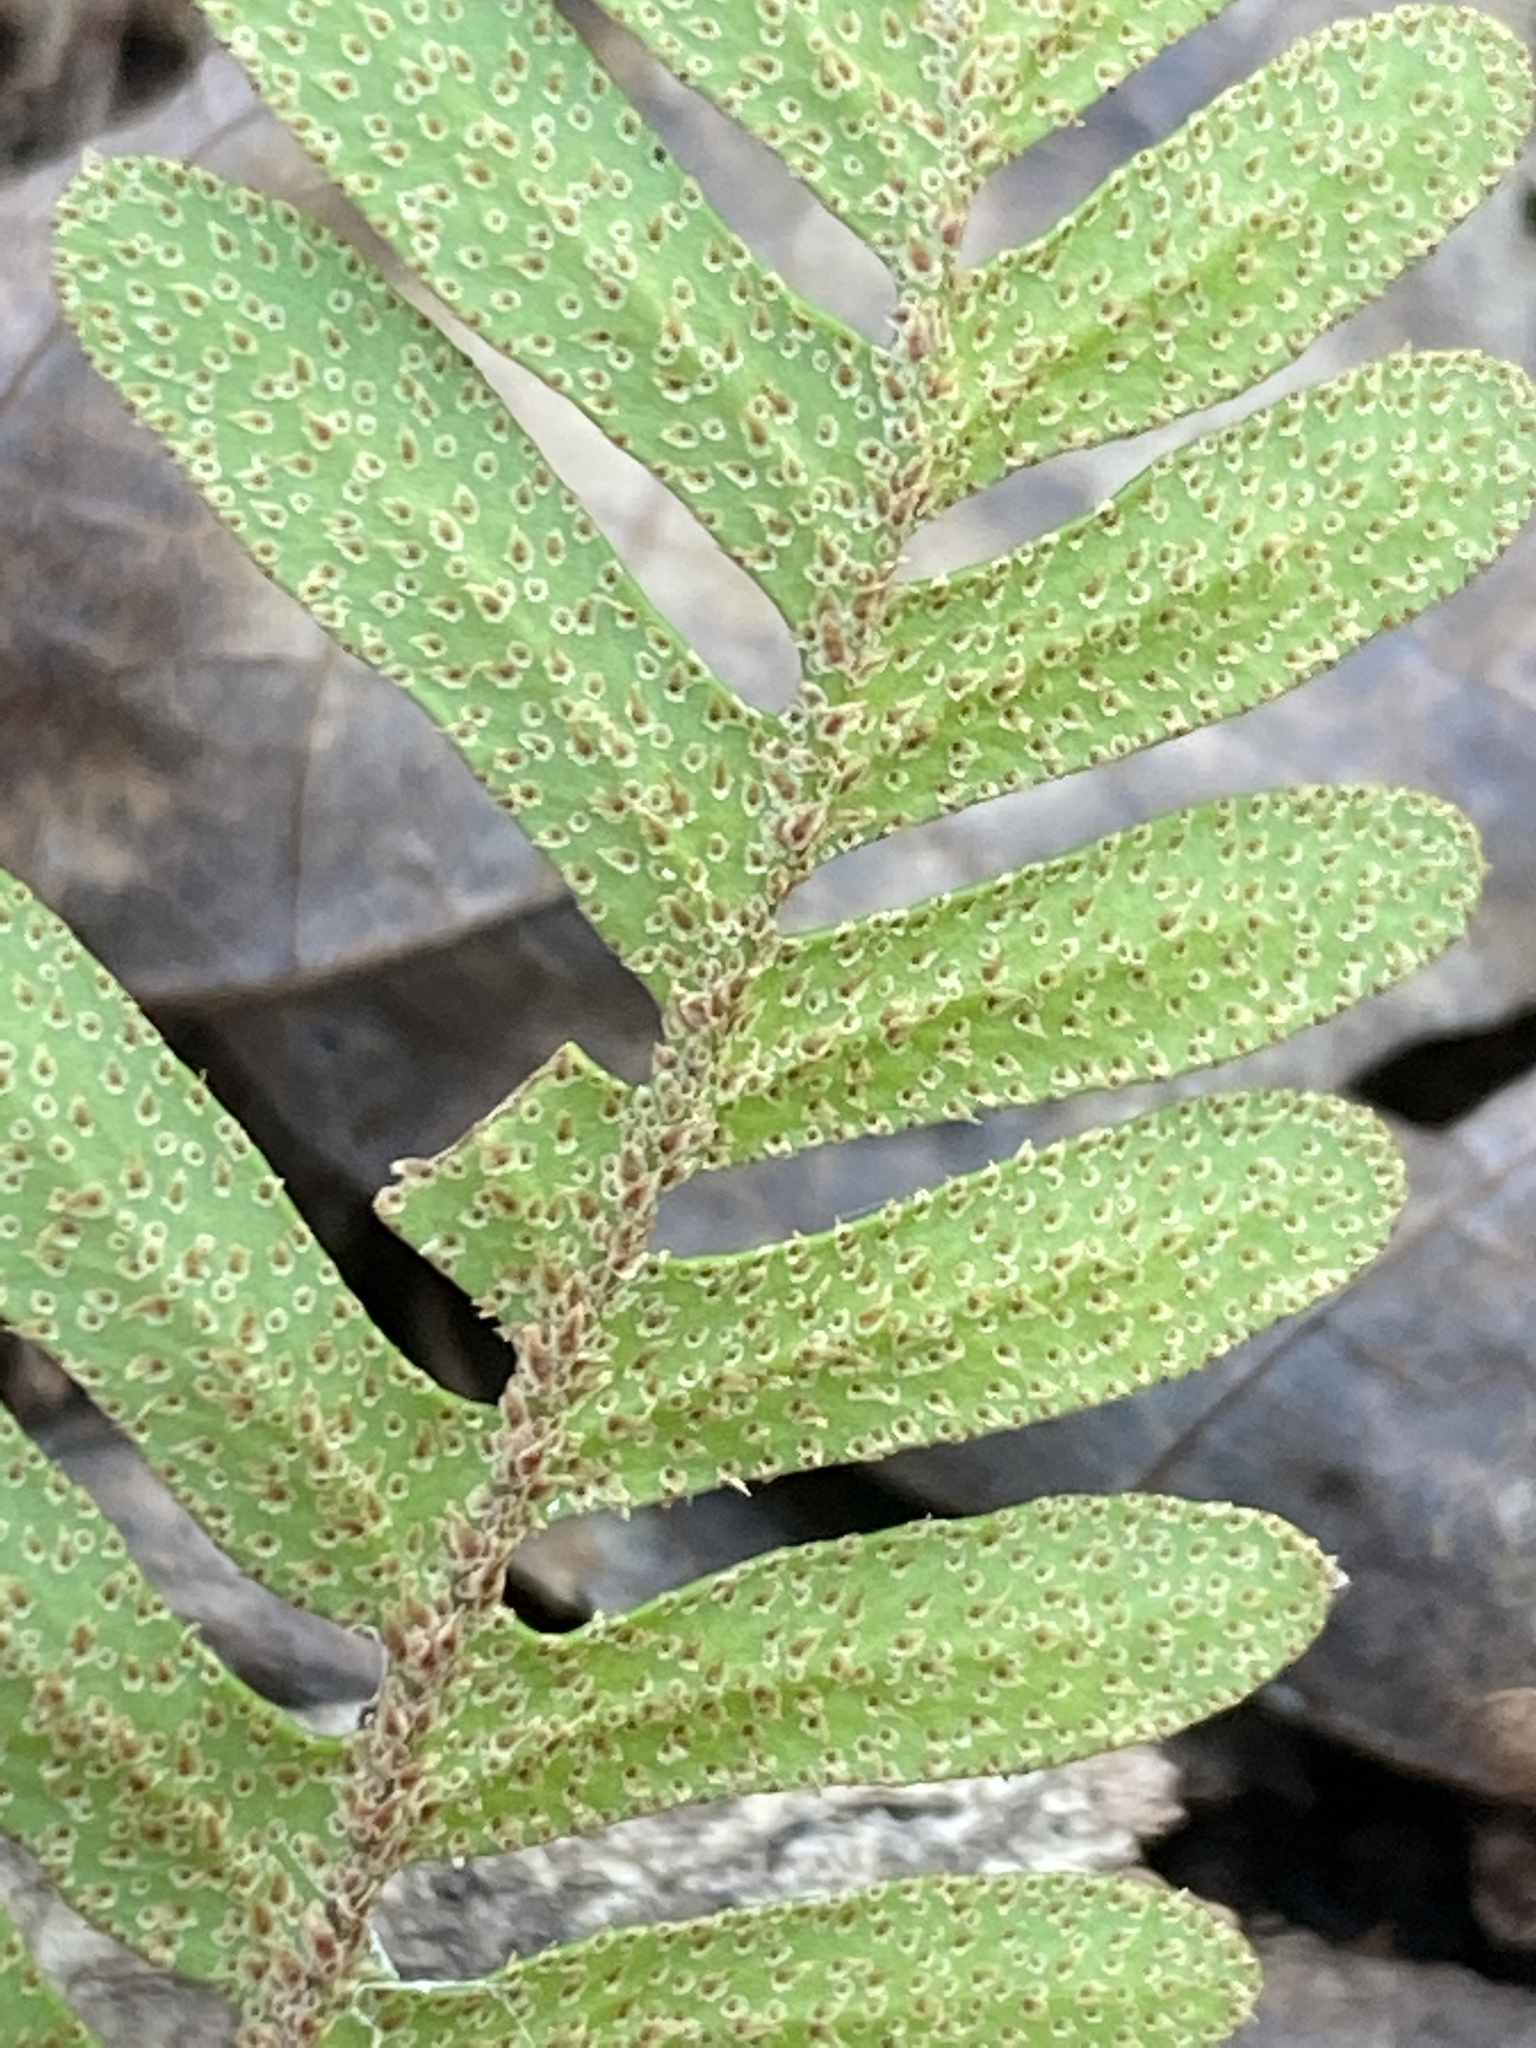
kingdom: Plantae
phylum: Tracheophyta
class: Polypodiopsida
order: Polypodiales
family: Polypodiaceae
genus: Pleopeltis
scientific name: Pleopeltis michauxiana
